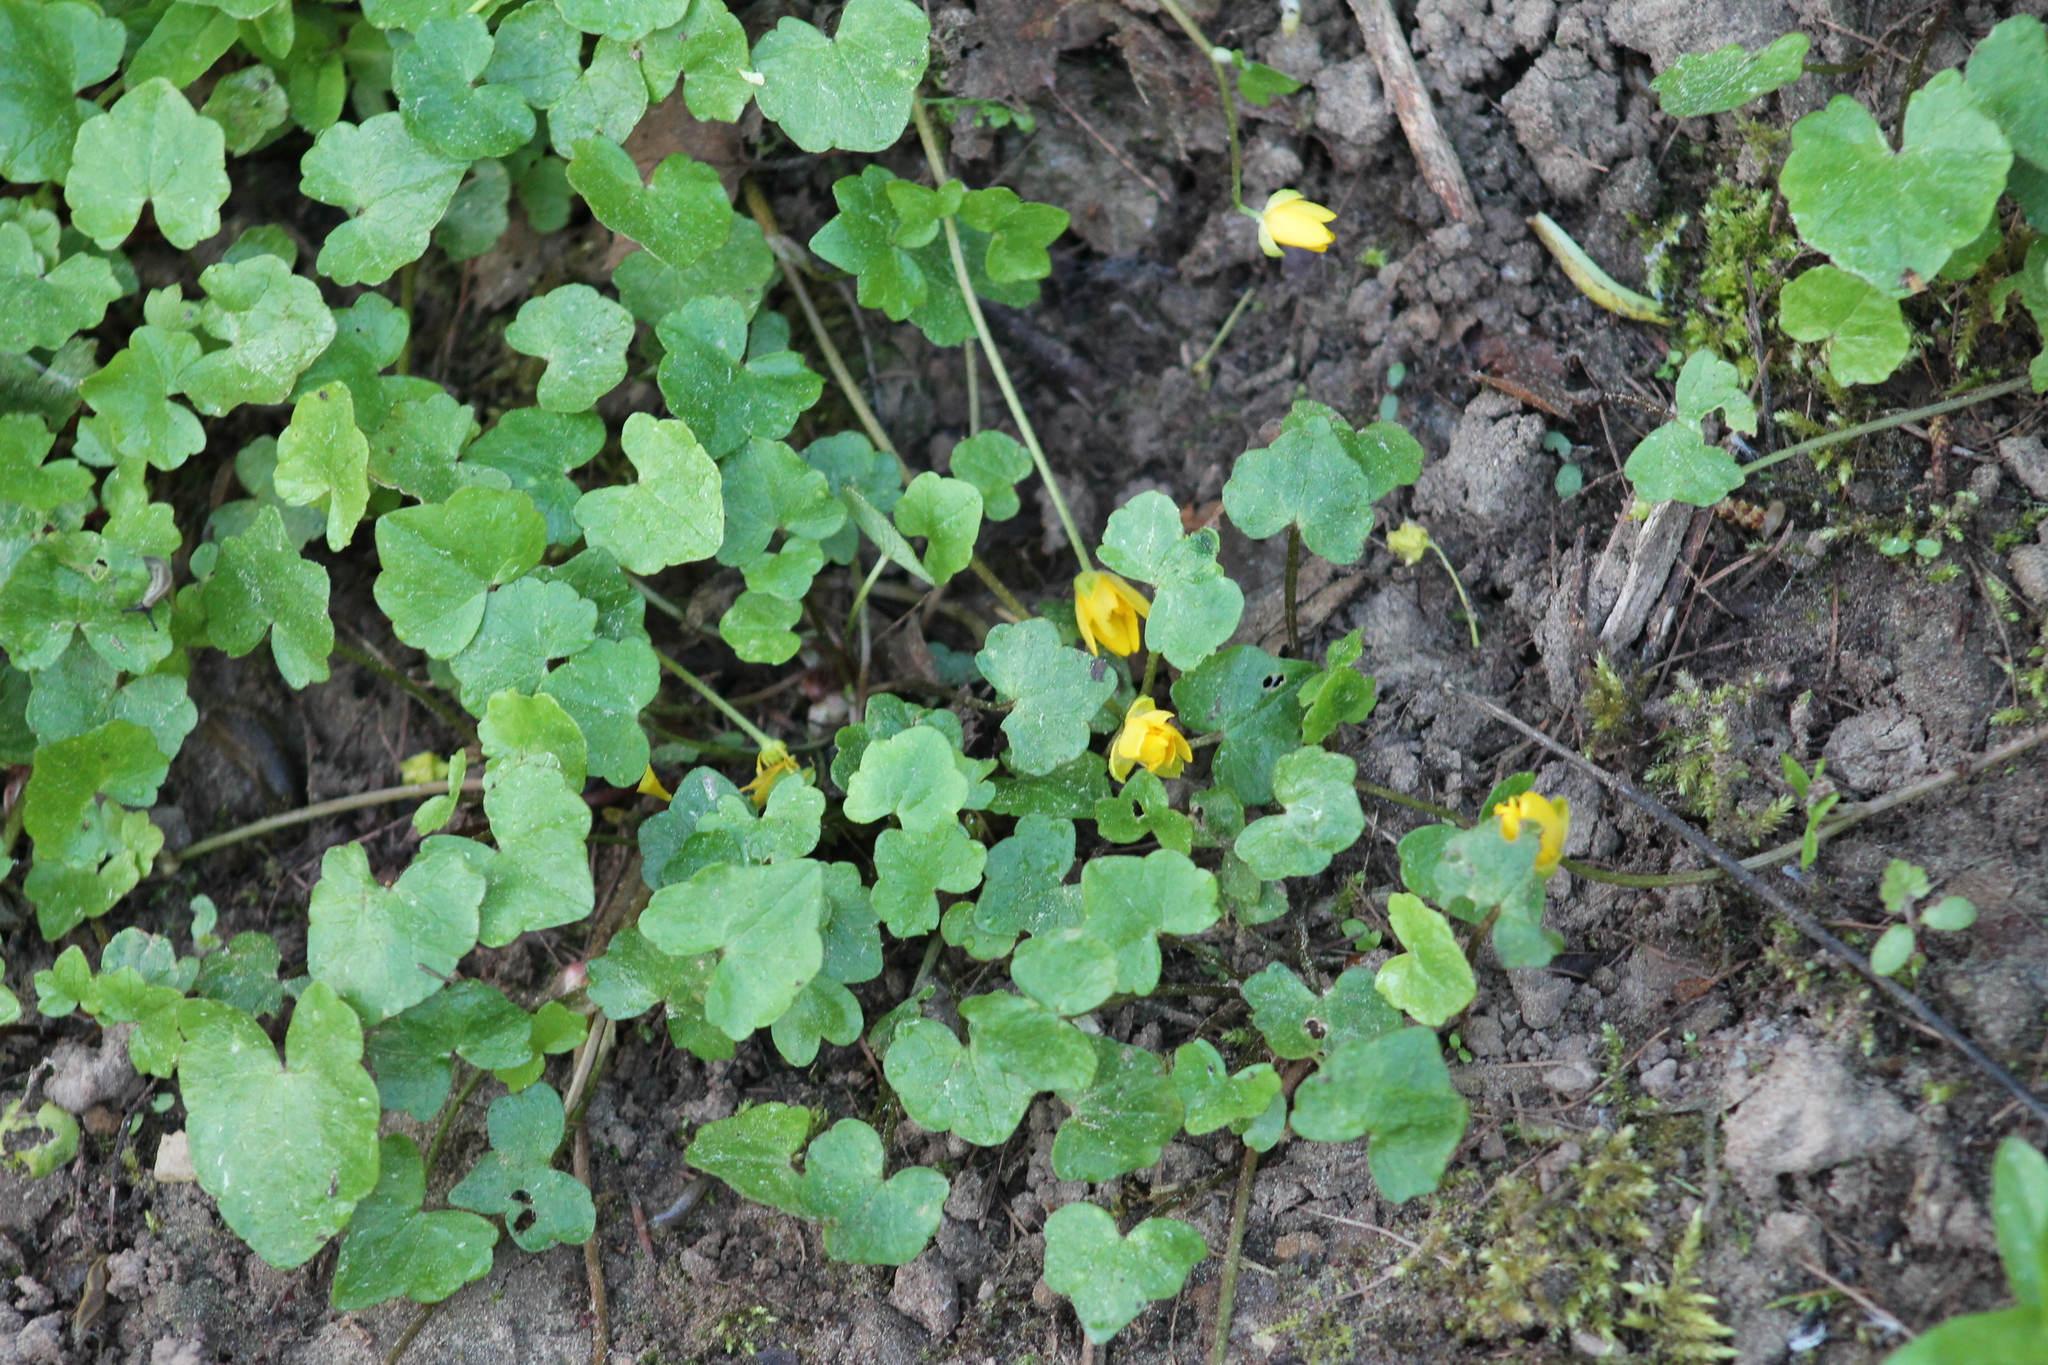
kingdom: Plantae
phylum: Tracheophyta
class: Magnoliopsida
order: Ranunculales
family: Ranunculaceae
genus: Ficaria
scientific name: Ficaria verna
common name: Lesser celandine
